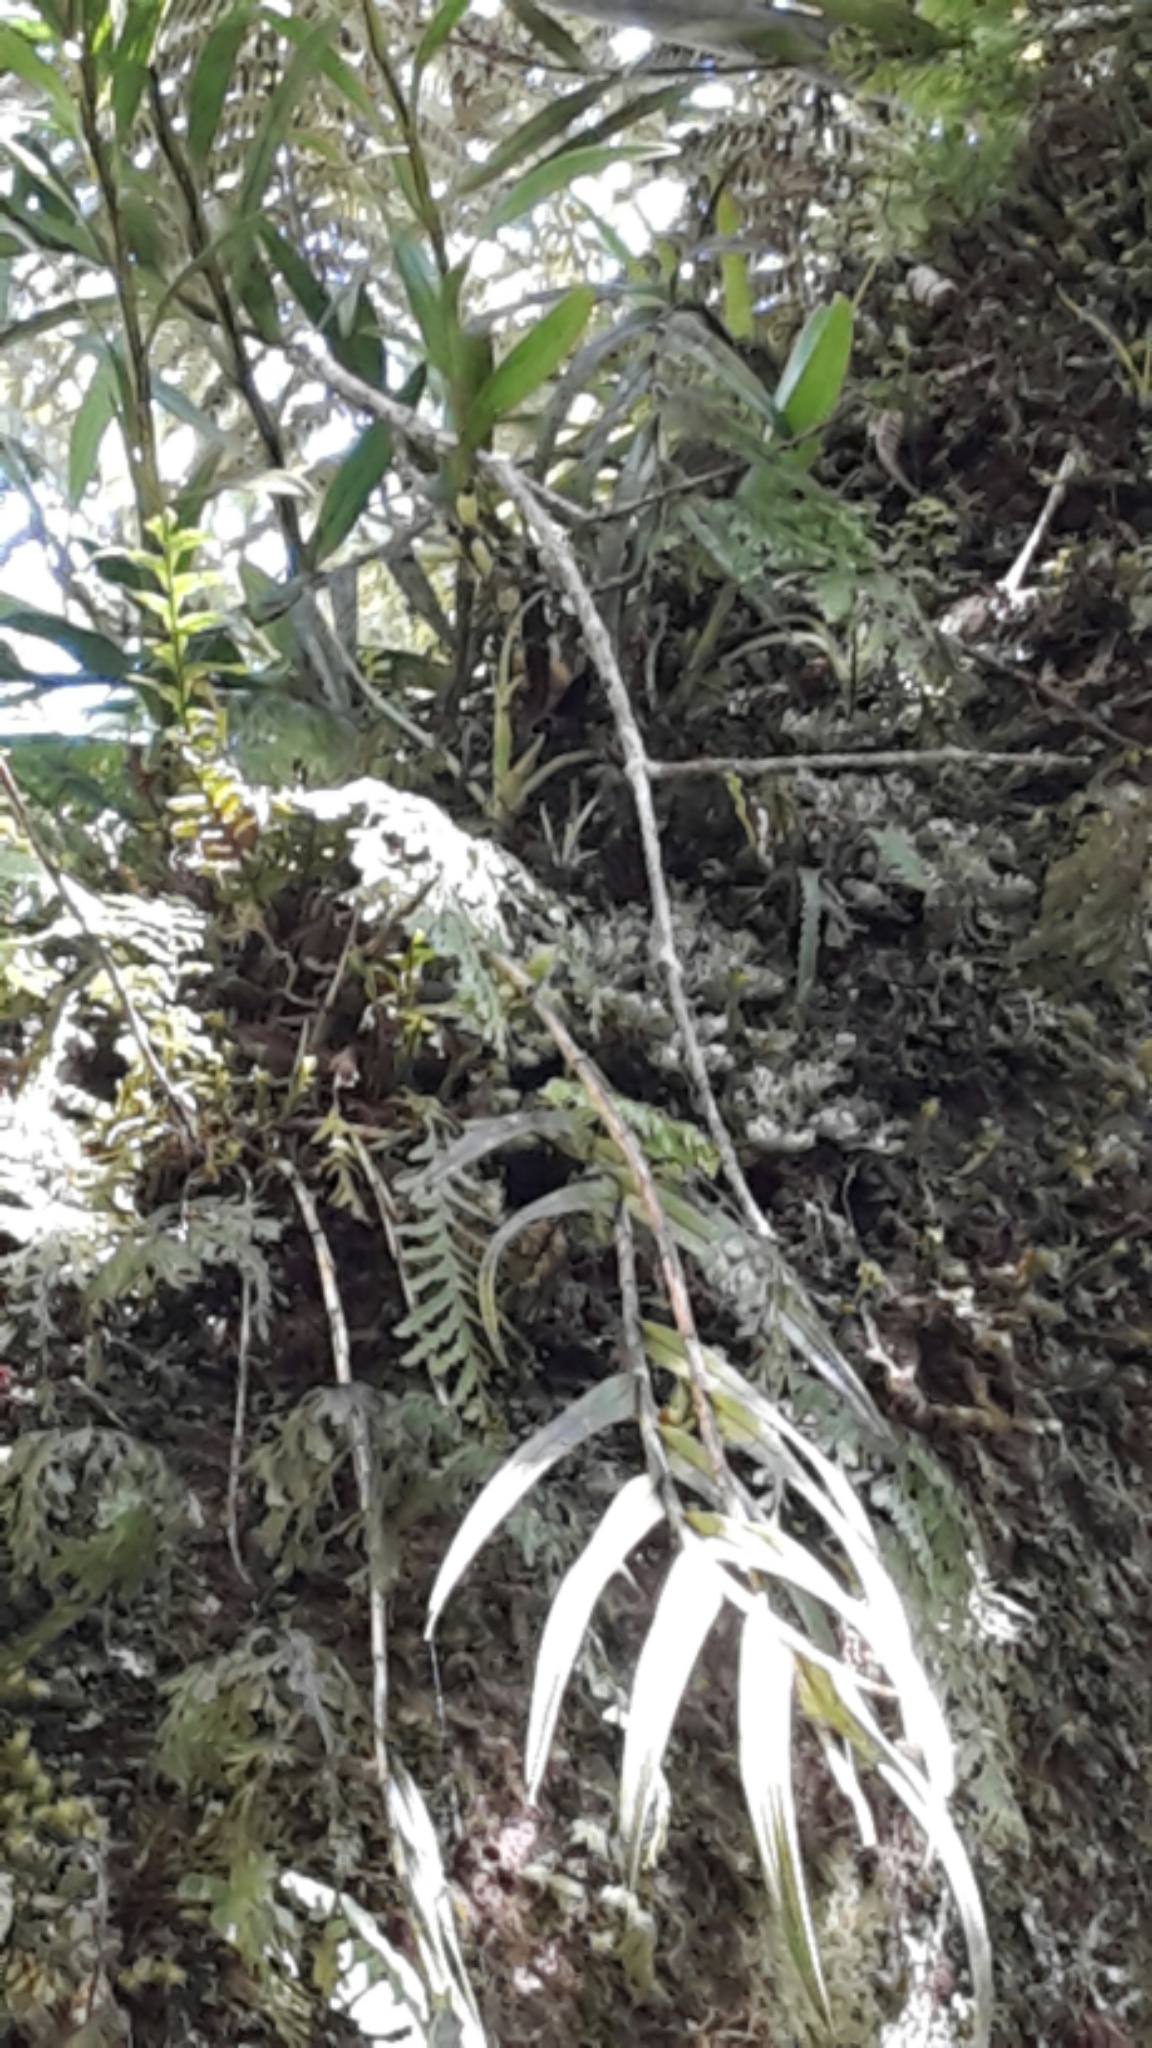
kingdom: Plantae
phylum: Tracheophyta
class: Liliopsida
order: Asparagales
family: Orchidaceae
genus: Earina
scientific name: Earina autumnalis
